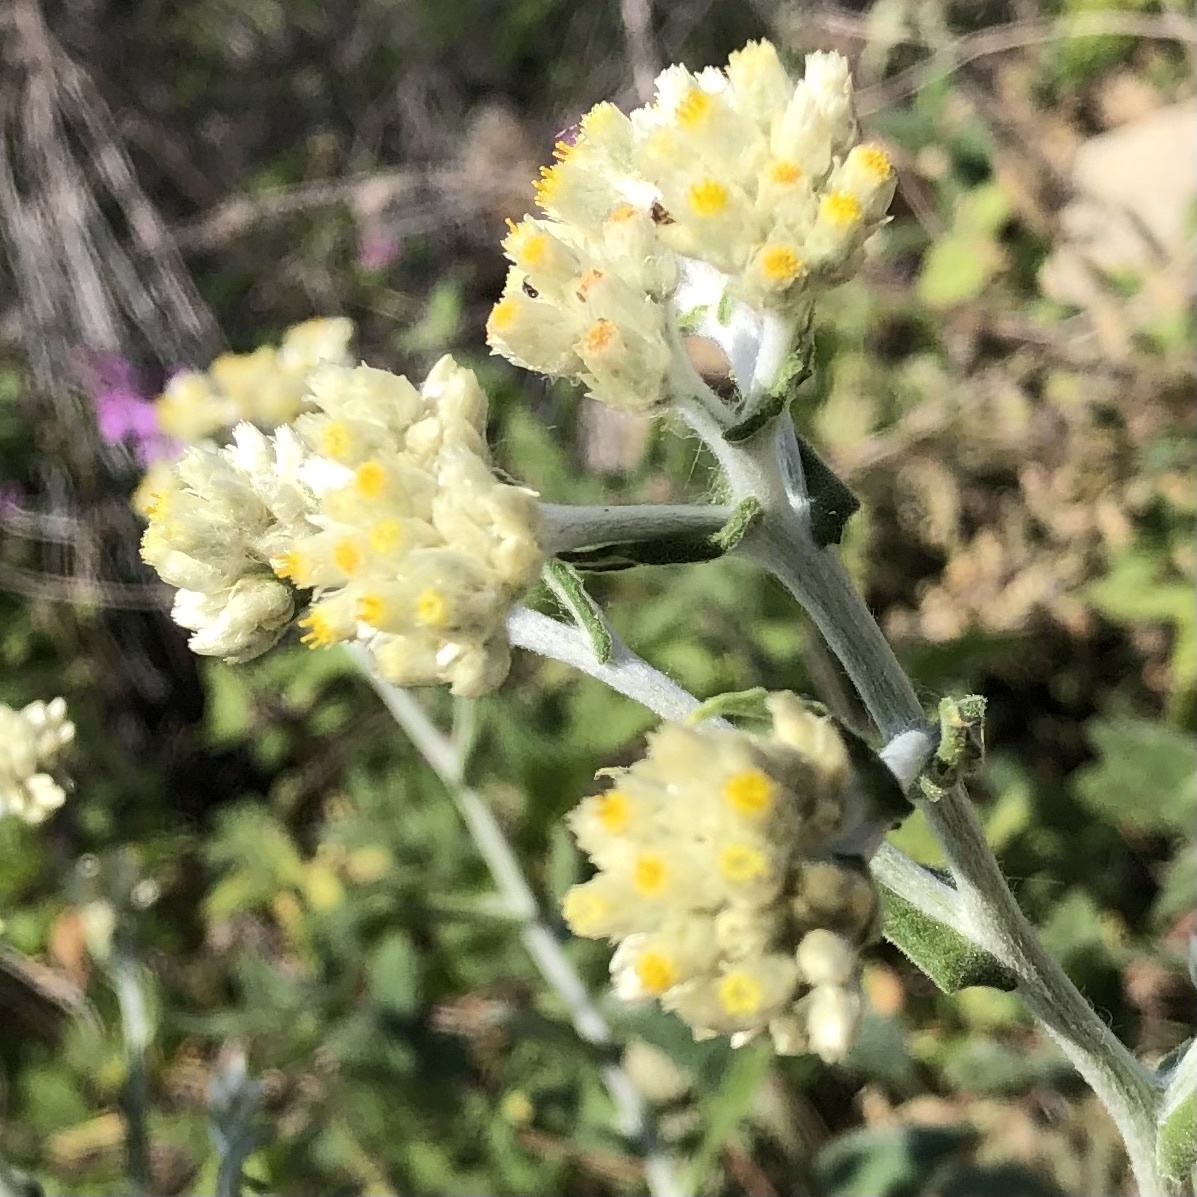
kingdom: Plantae
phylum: Tracheophyta
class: Magnoliopsida
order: Asterales
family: Asteraceae
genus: Pseudognaphalium
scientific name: Pseudognaphalium biolettii
